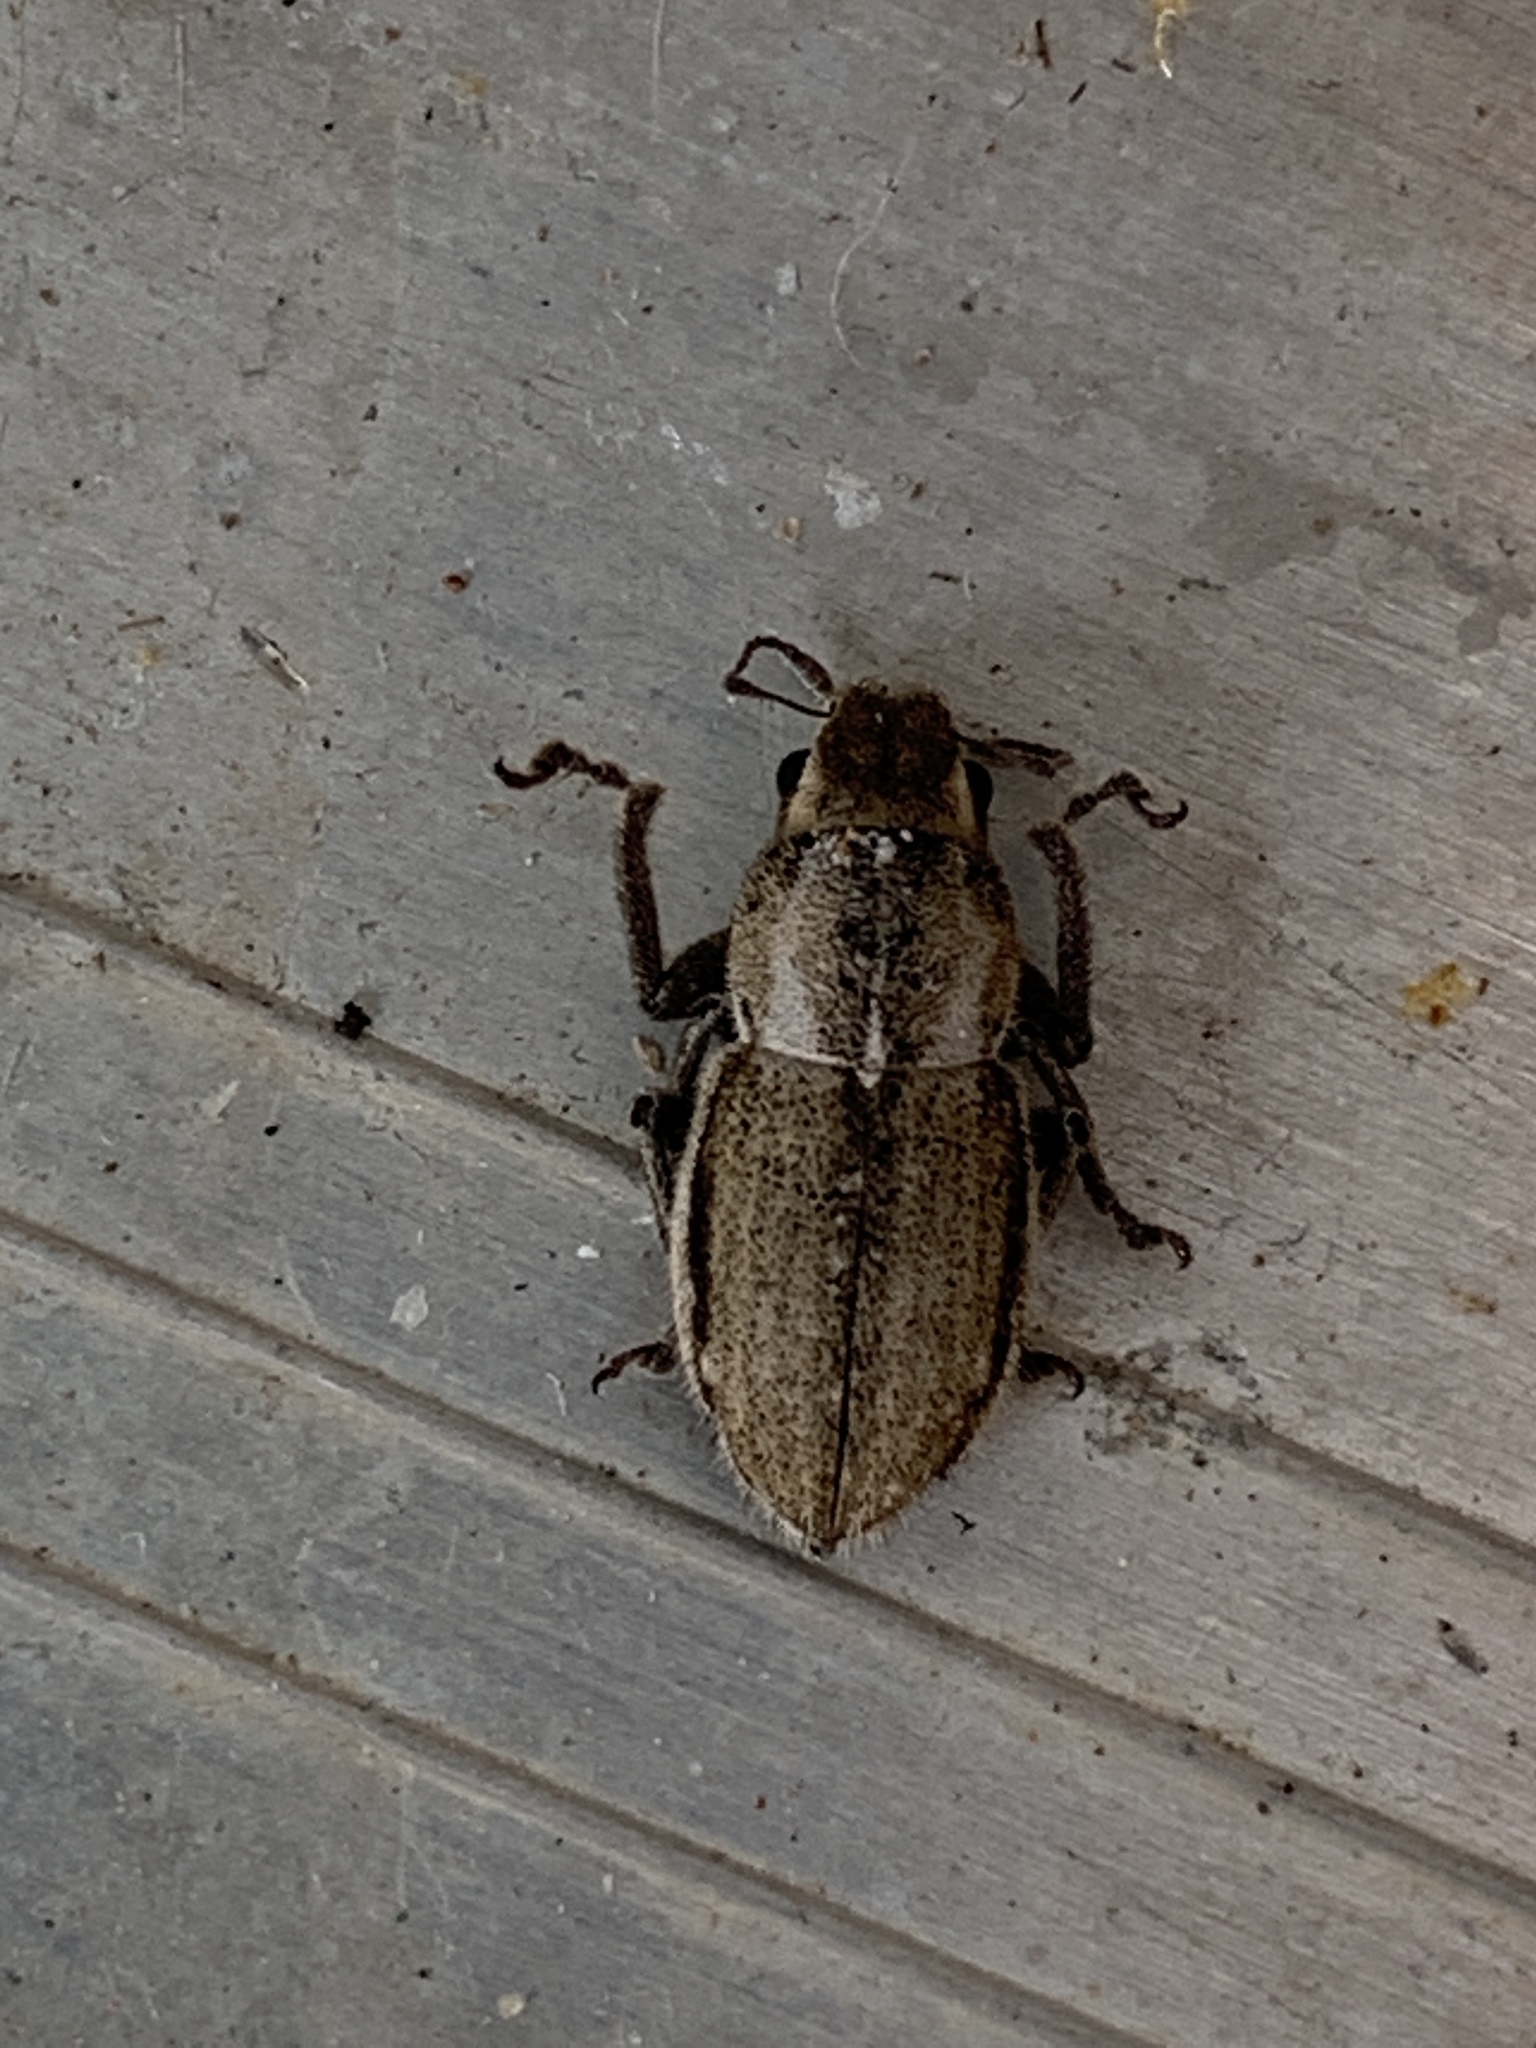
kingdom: Animalia
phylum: Arthropoda
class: Insecta
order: Coleoptera
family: Curculionidae
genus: Naupactus
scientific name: Naupactus peregrinus
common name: Whitefringed beetle
